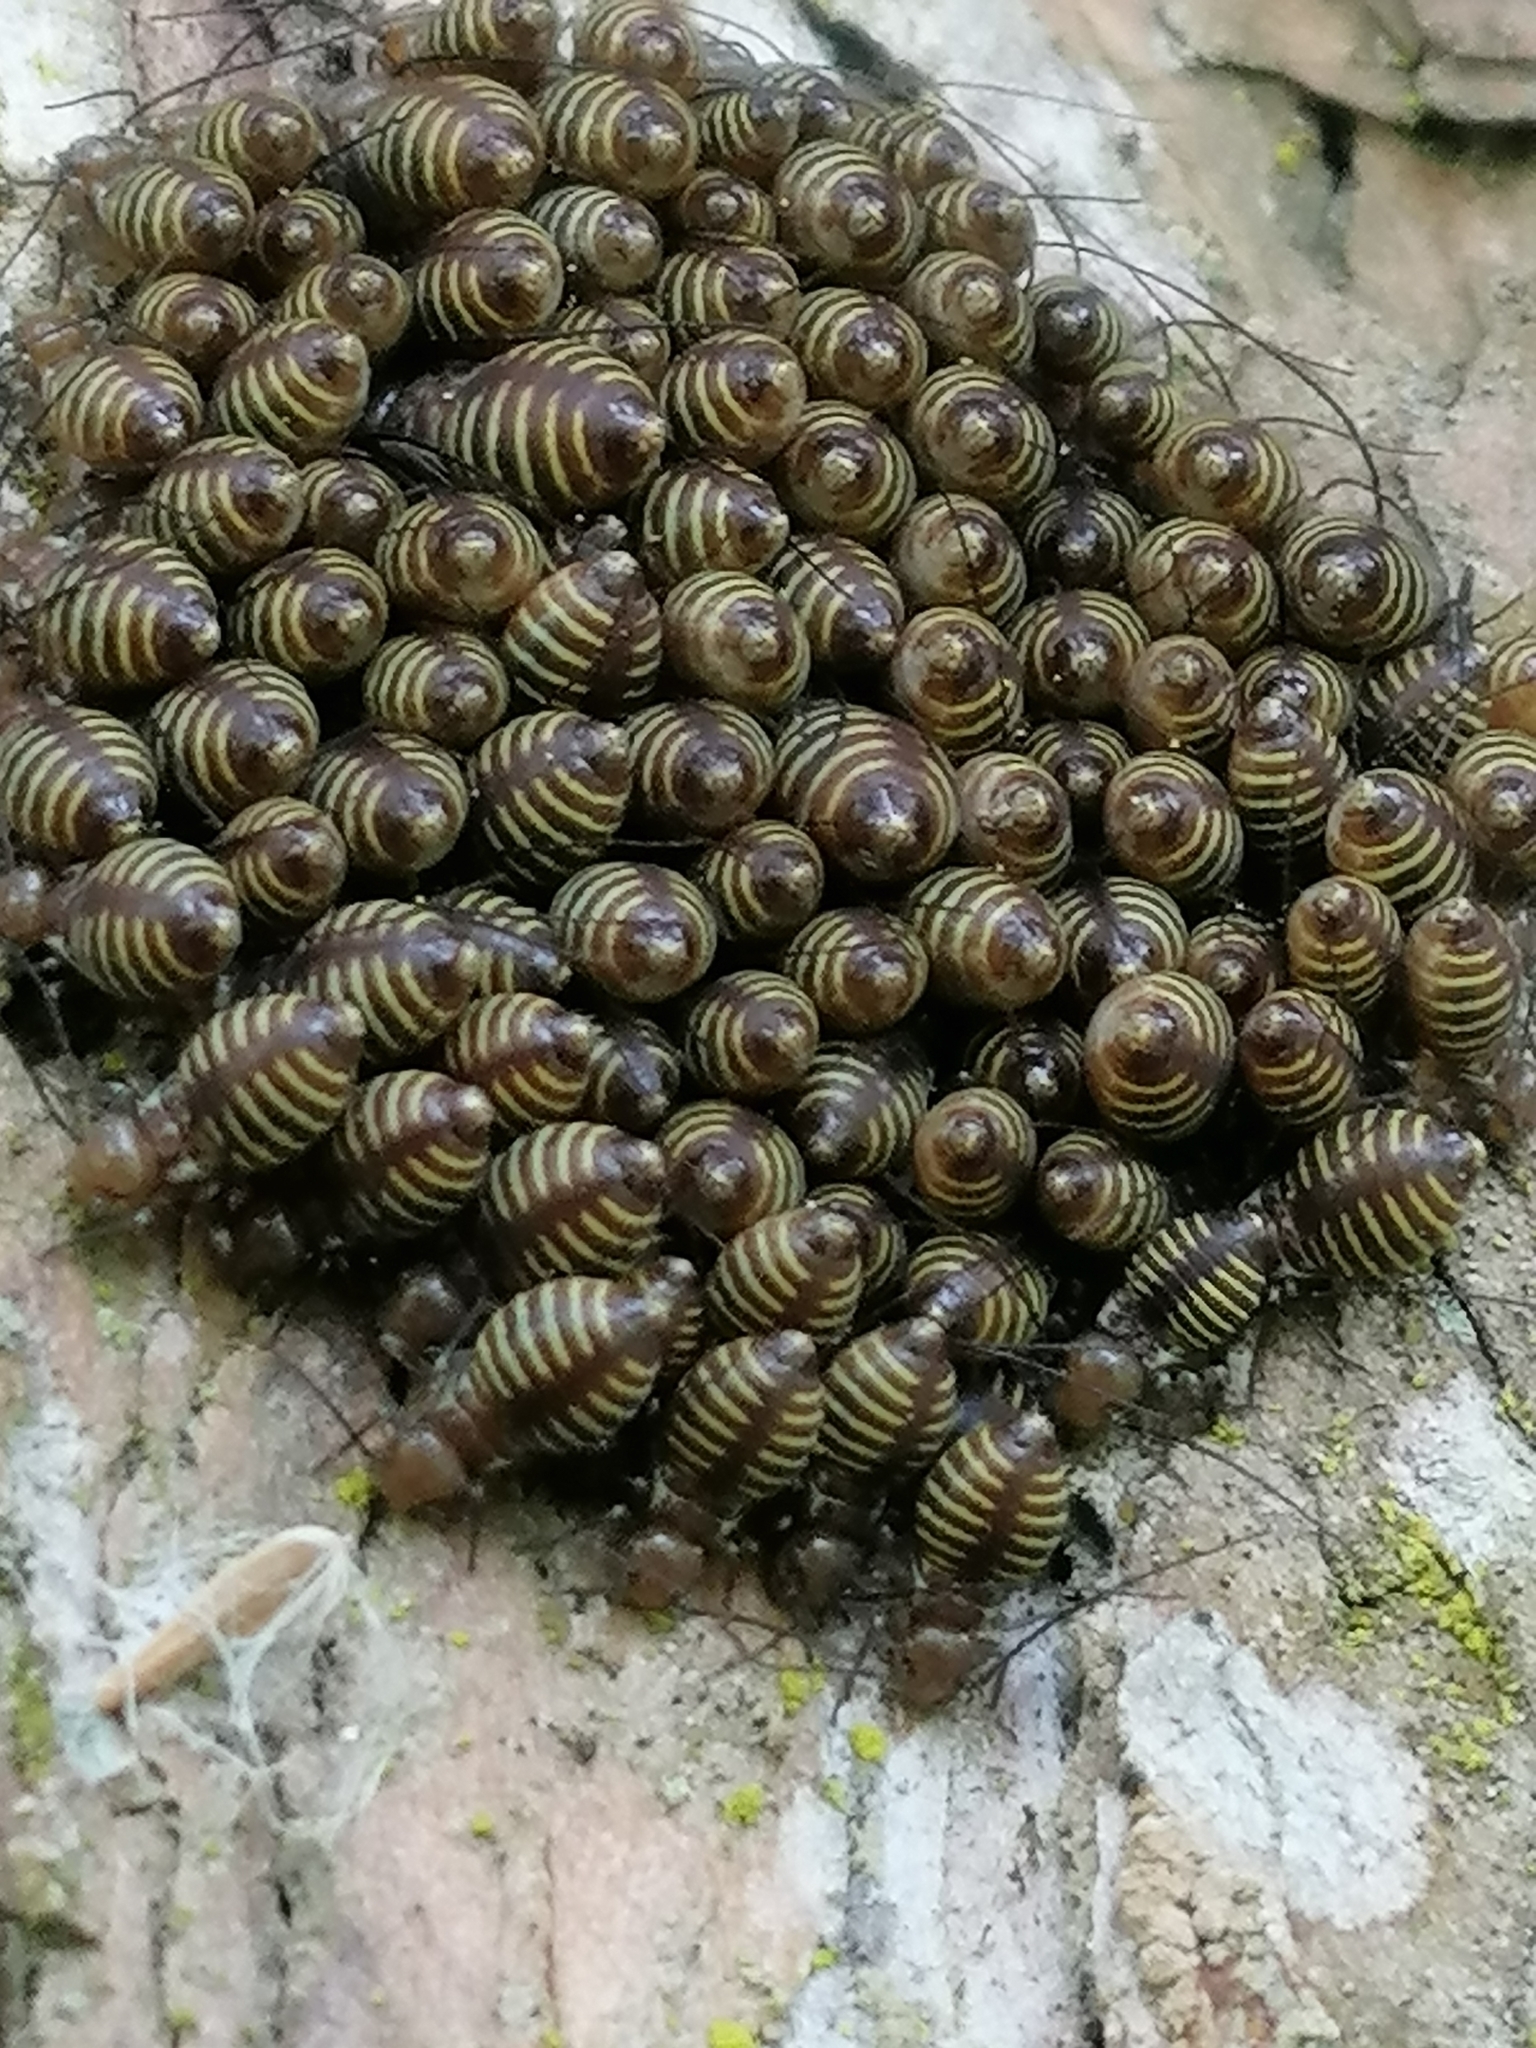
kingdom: Animalia
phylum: Arthropoda
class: Insecta
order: Psocodea
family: Psocidae
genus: Cerastipsocus
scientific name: Cerastipsocus venosus
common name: Tree cattle
